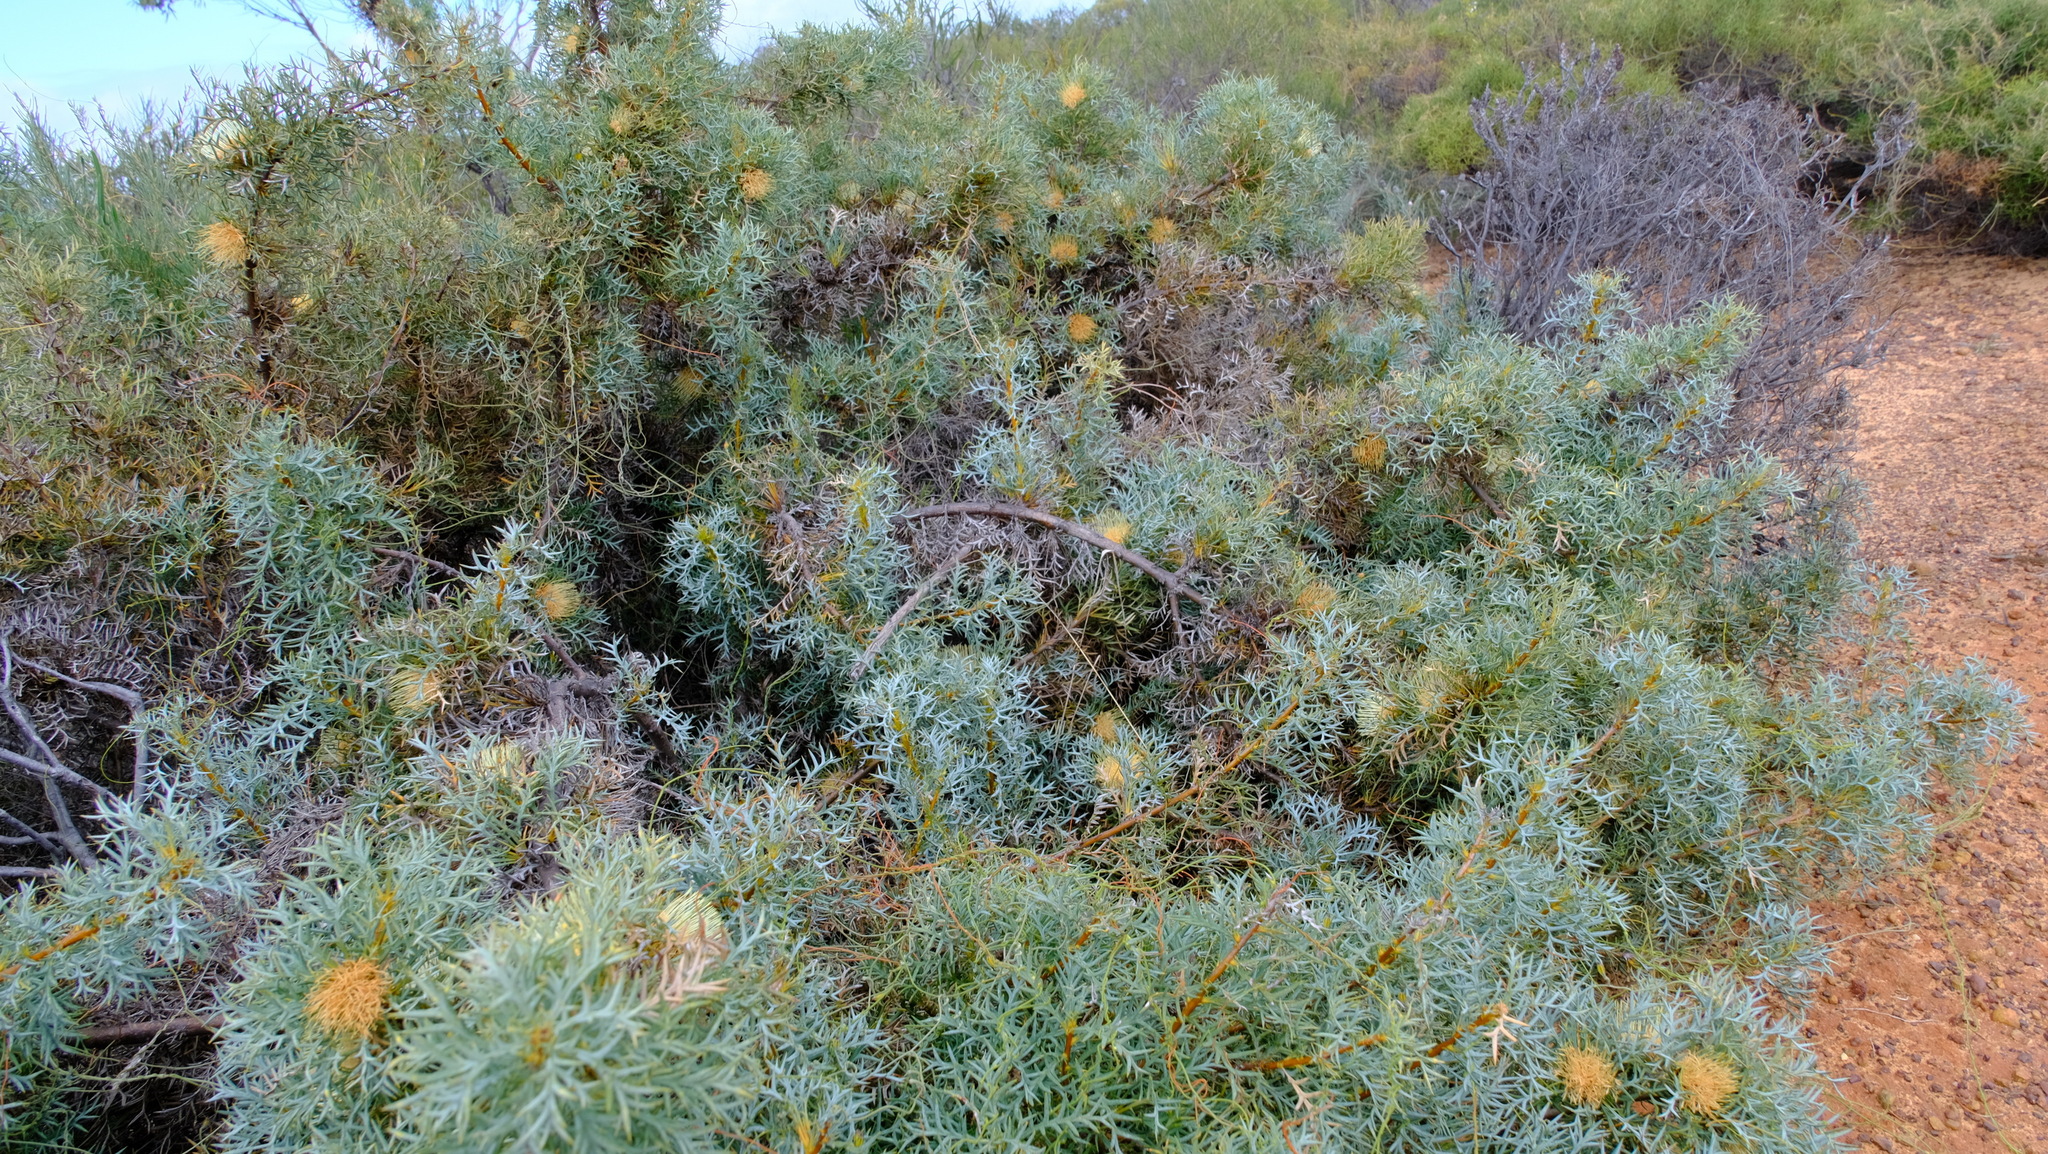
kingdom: Plantae
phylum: Tracheophyta
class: Magnoliopsida
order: Proteales
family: Proteaceae
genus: Banksia
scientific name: Banksia fraseri
